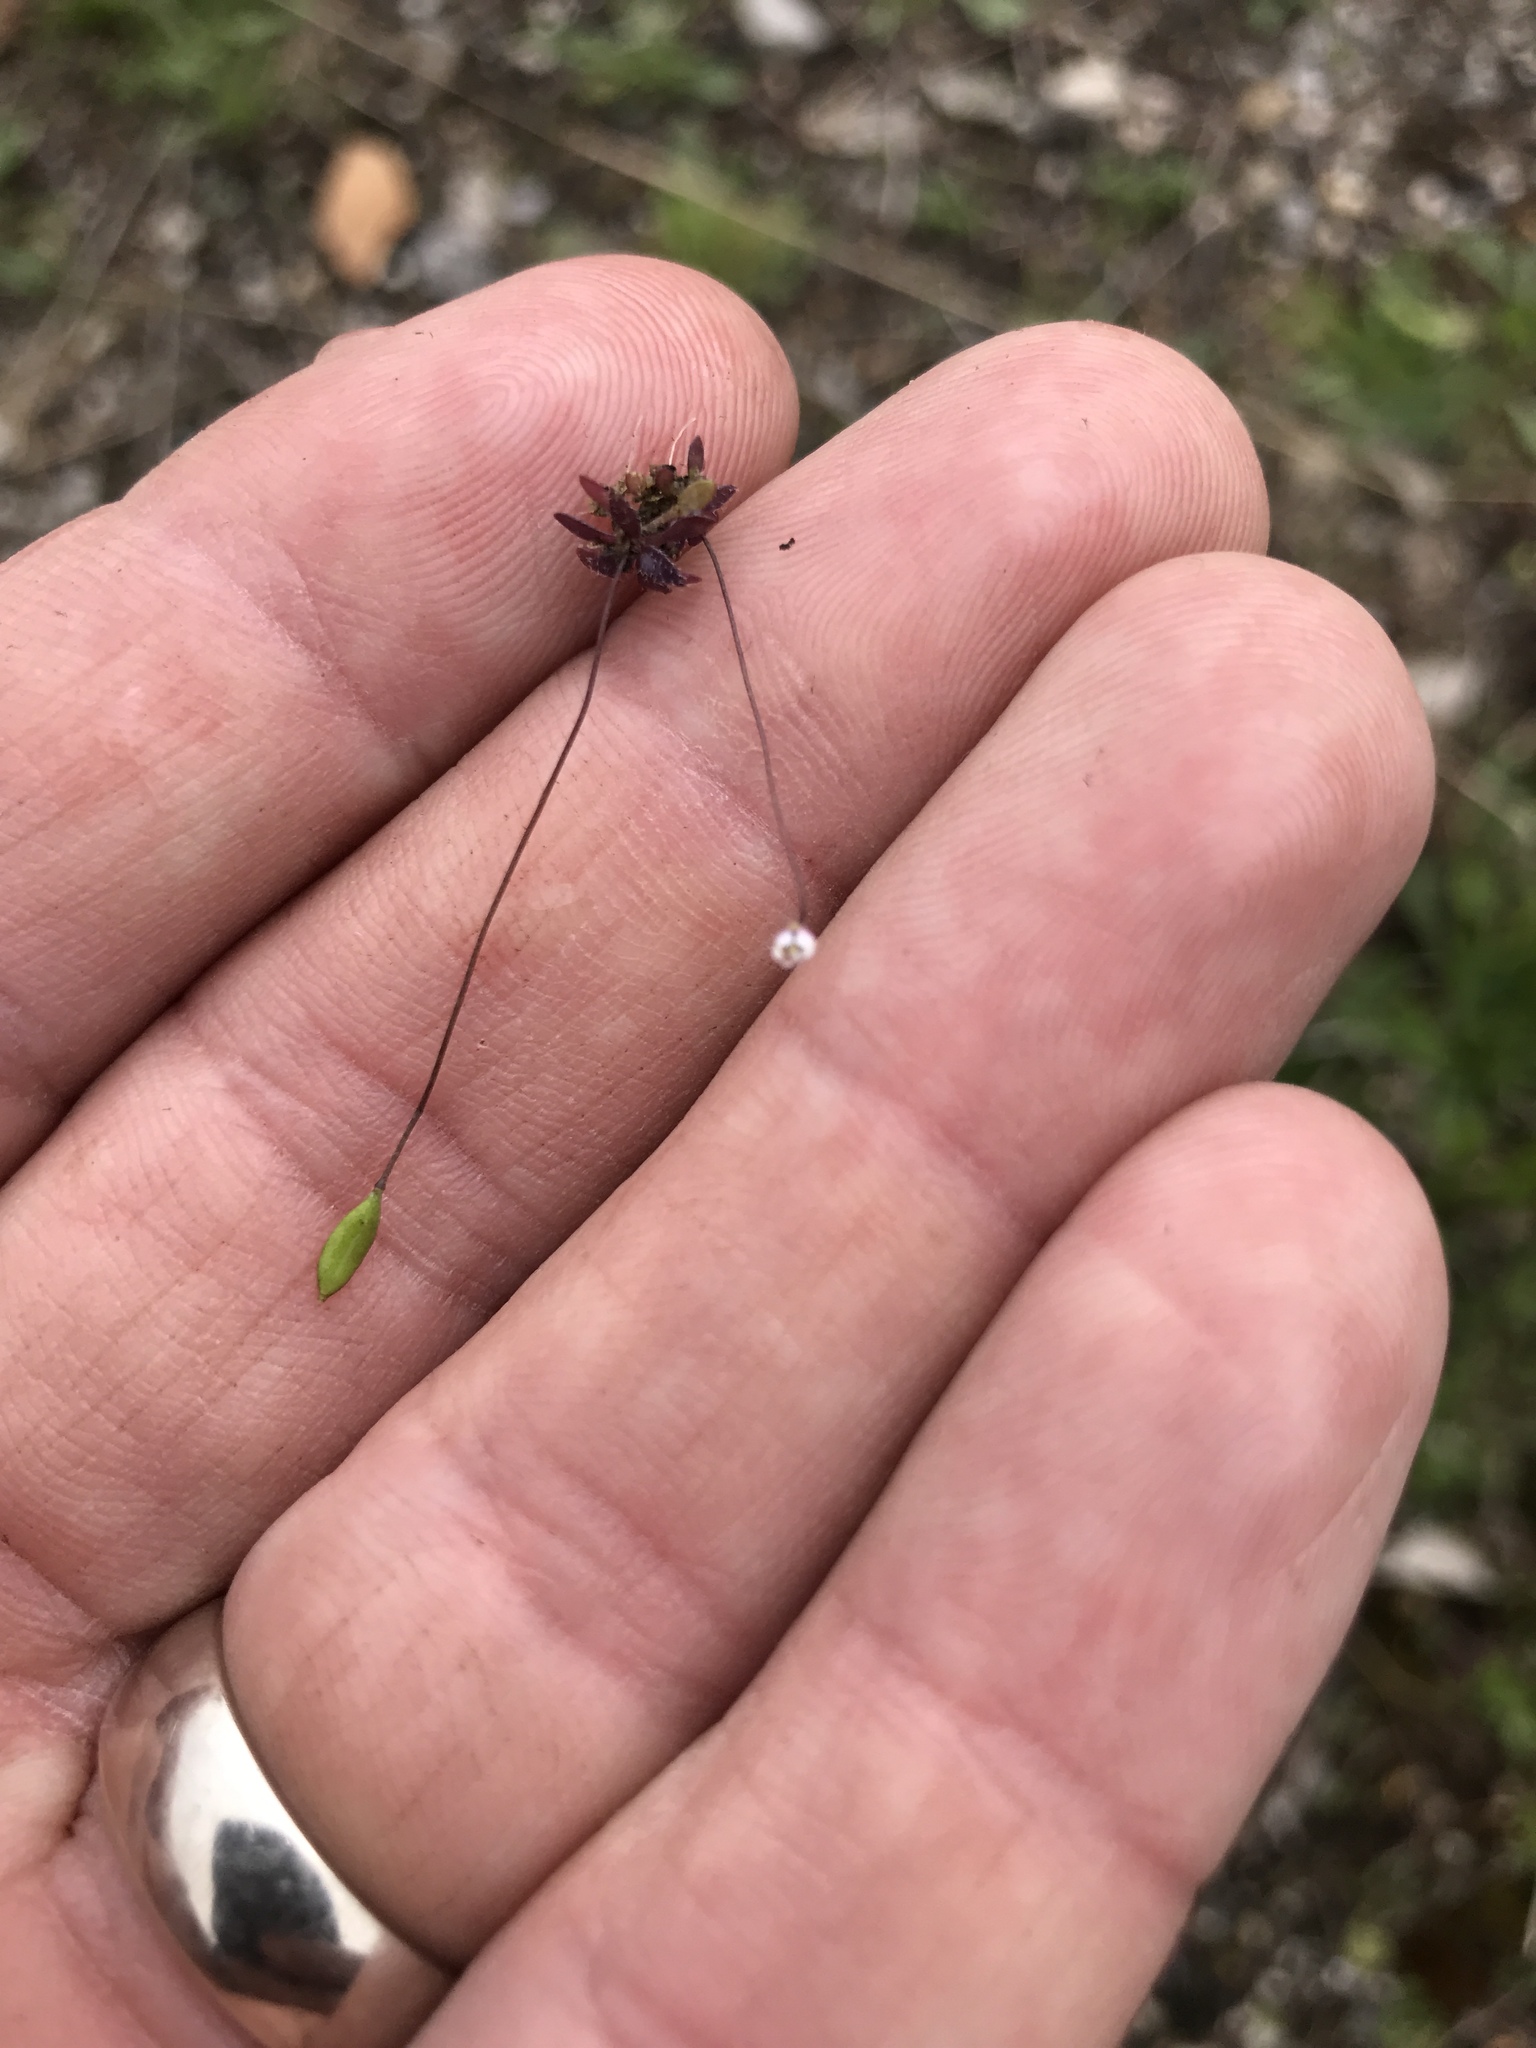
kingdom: Plantae
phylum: Tracheophyta
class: Magnoliopsida
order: Brassicales
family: Brassicaceae
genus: Draba
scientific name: Draba verna
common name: Spring draba
